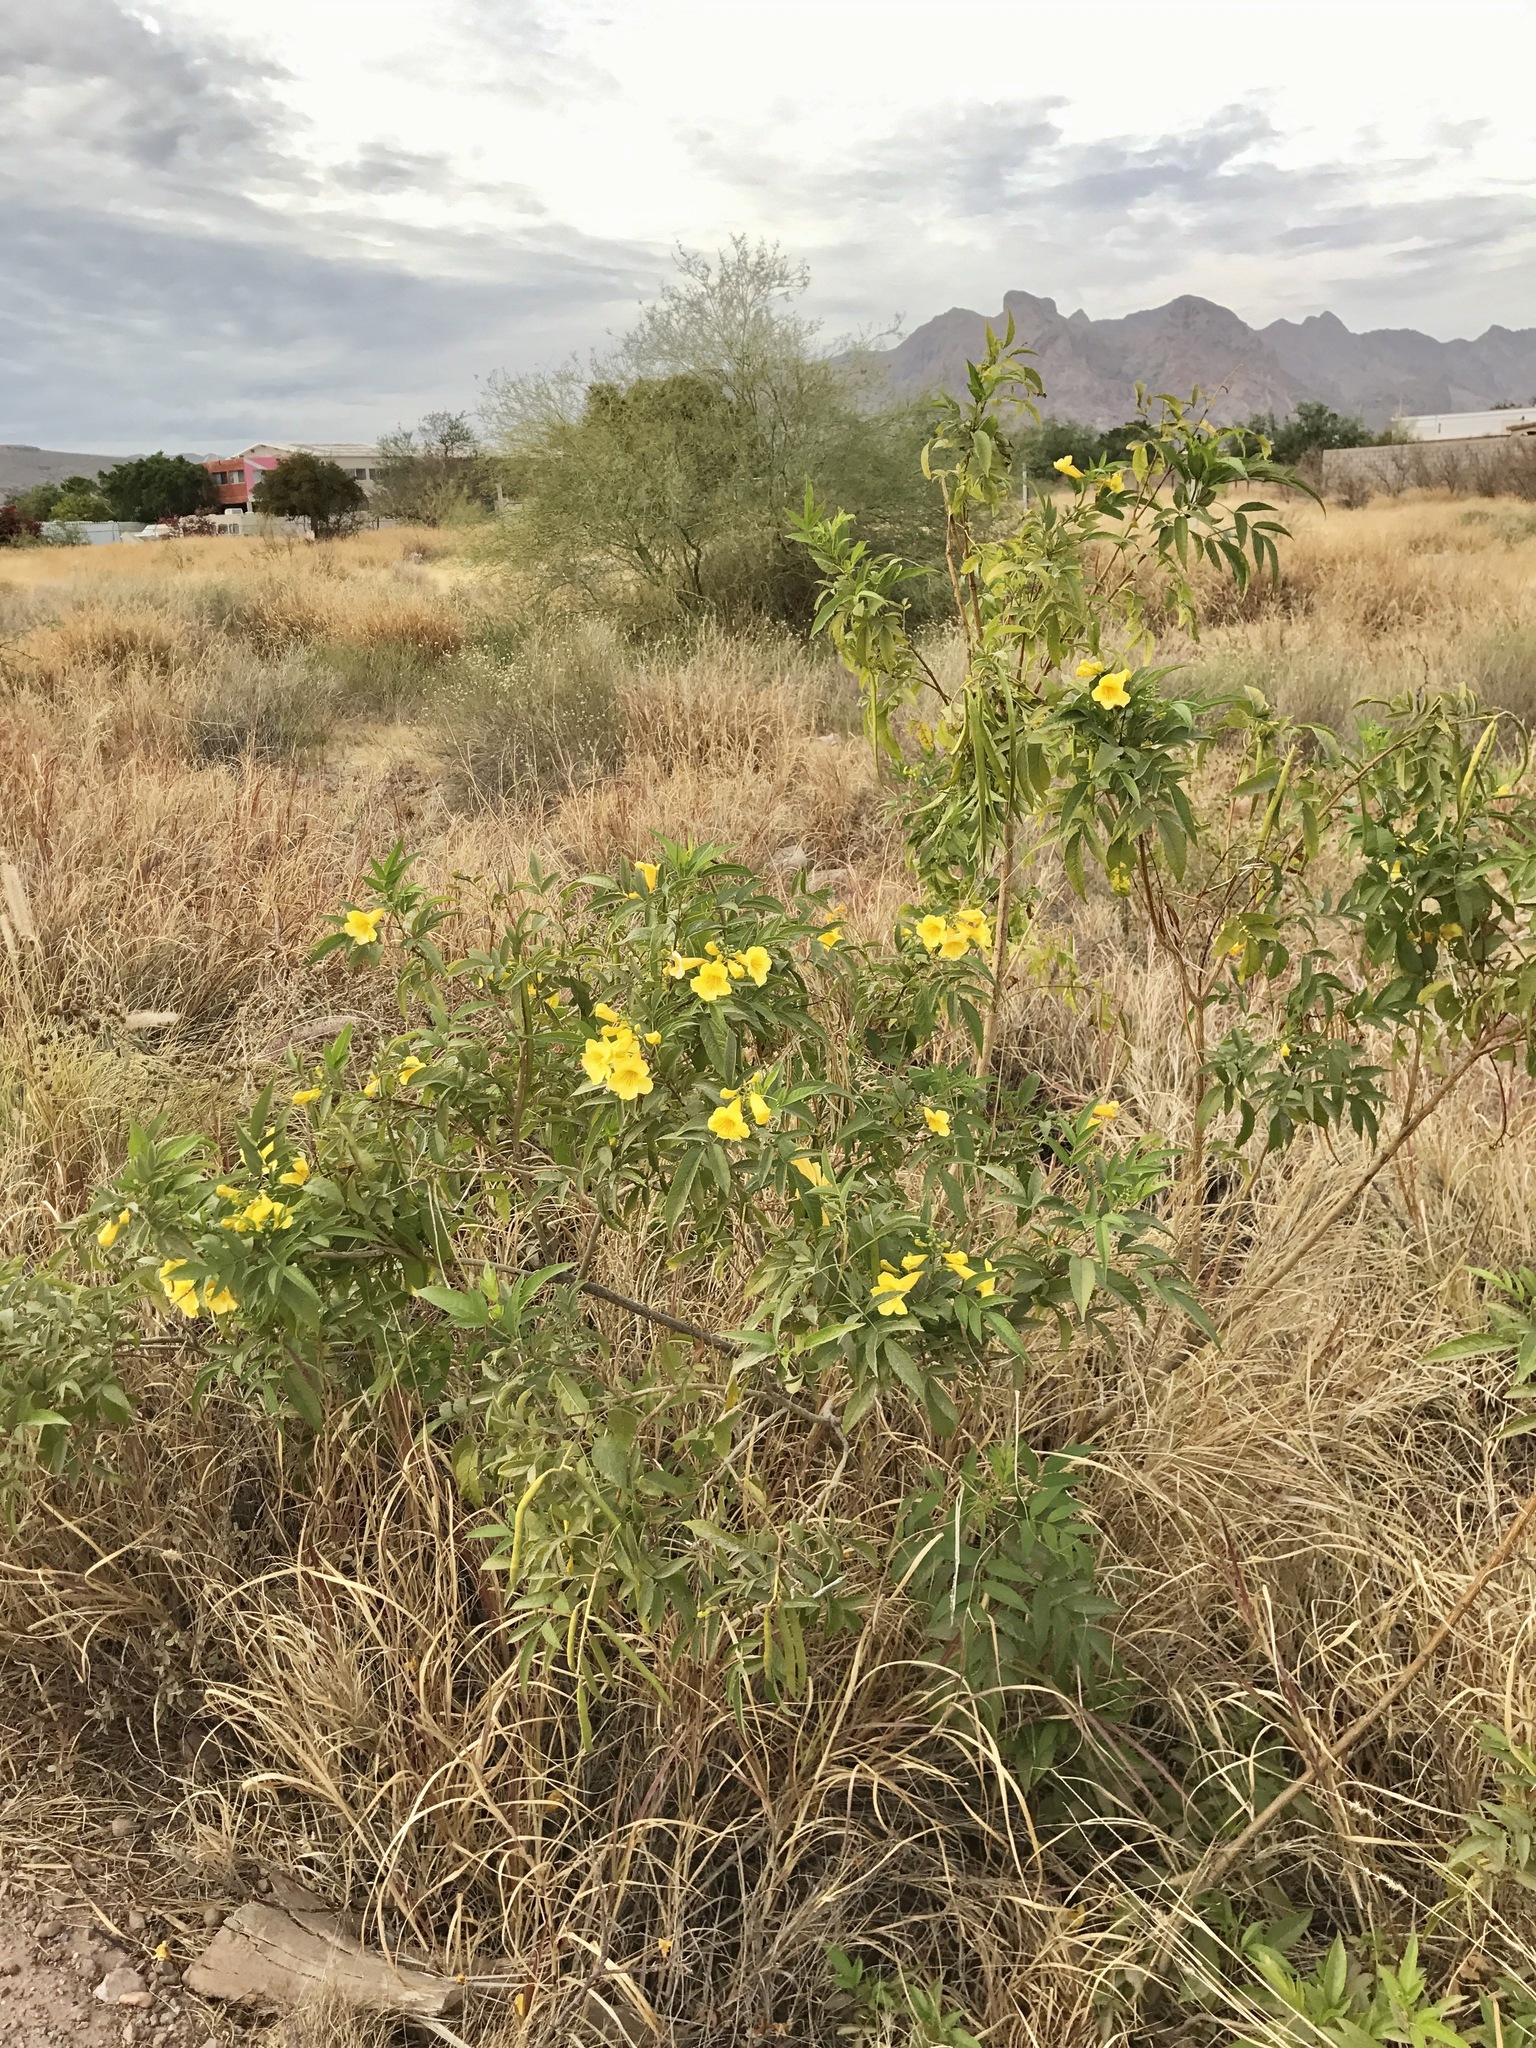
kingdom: Plantae
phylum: Tracheophyta
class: Magnoliopsida
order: Lamiales
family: Bignoniaceae
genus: Tecoma
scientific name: Tecoma stans
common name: Yellow trumpetbush
